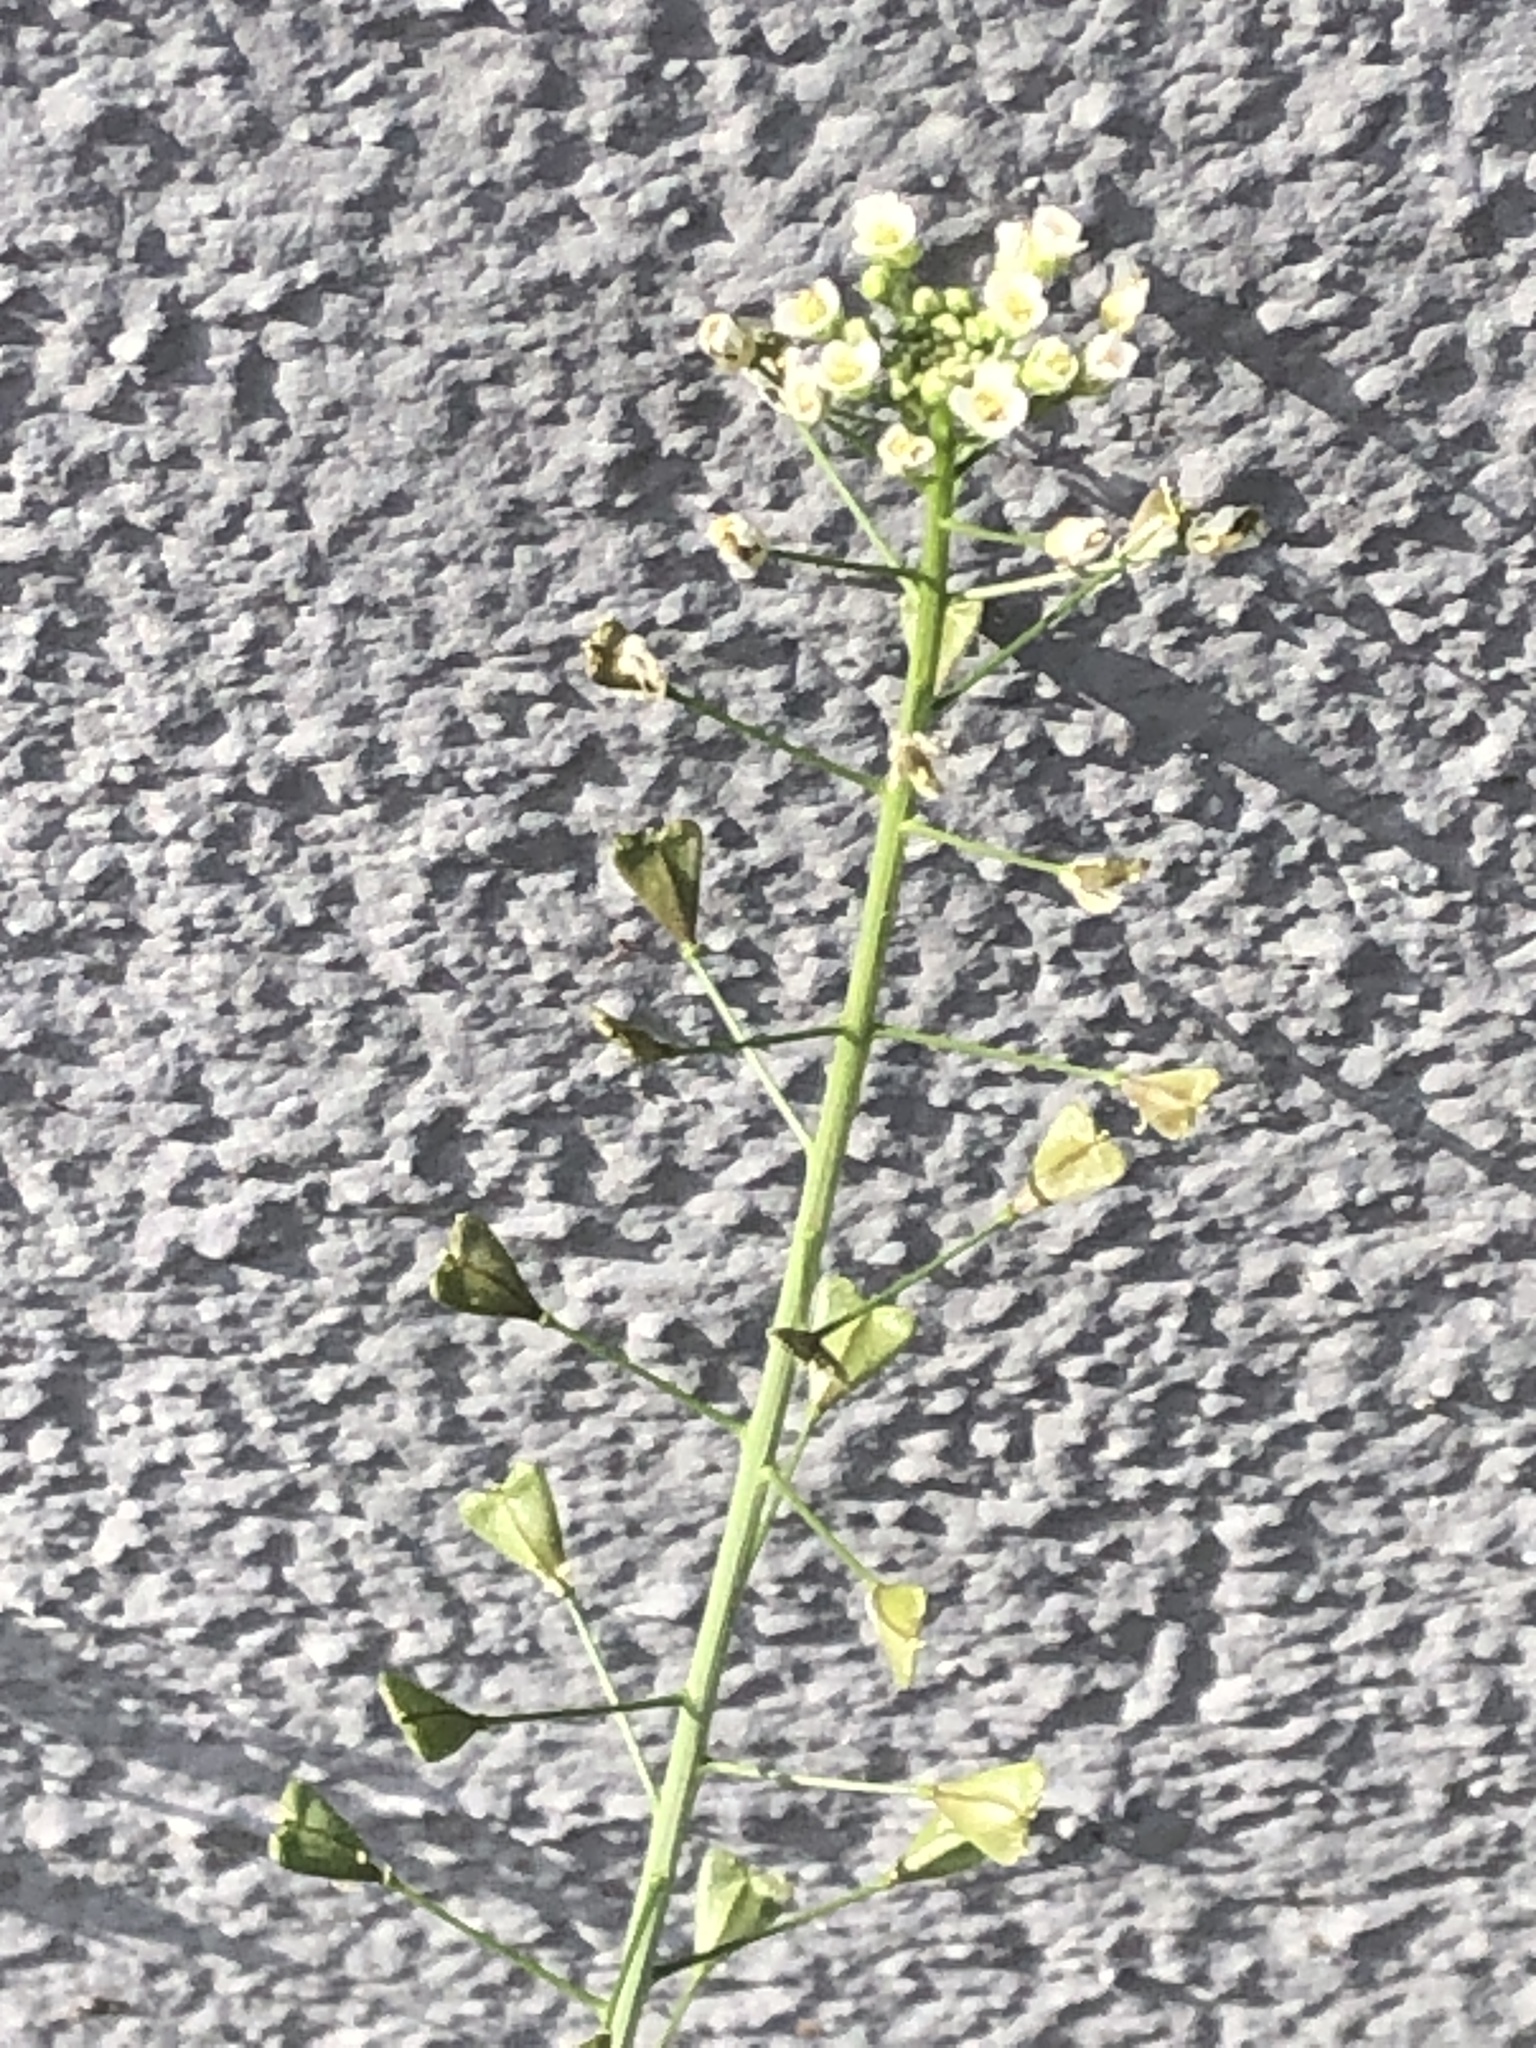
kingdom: Plantae
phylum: Tracheophyta
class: Magnoliopsida
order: Brassicales
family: Brassicaceae
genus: Capsella
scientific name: Capsella bursa-pastoris
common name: Shepherd's purse
